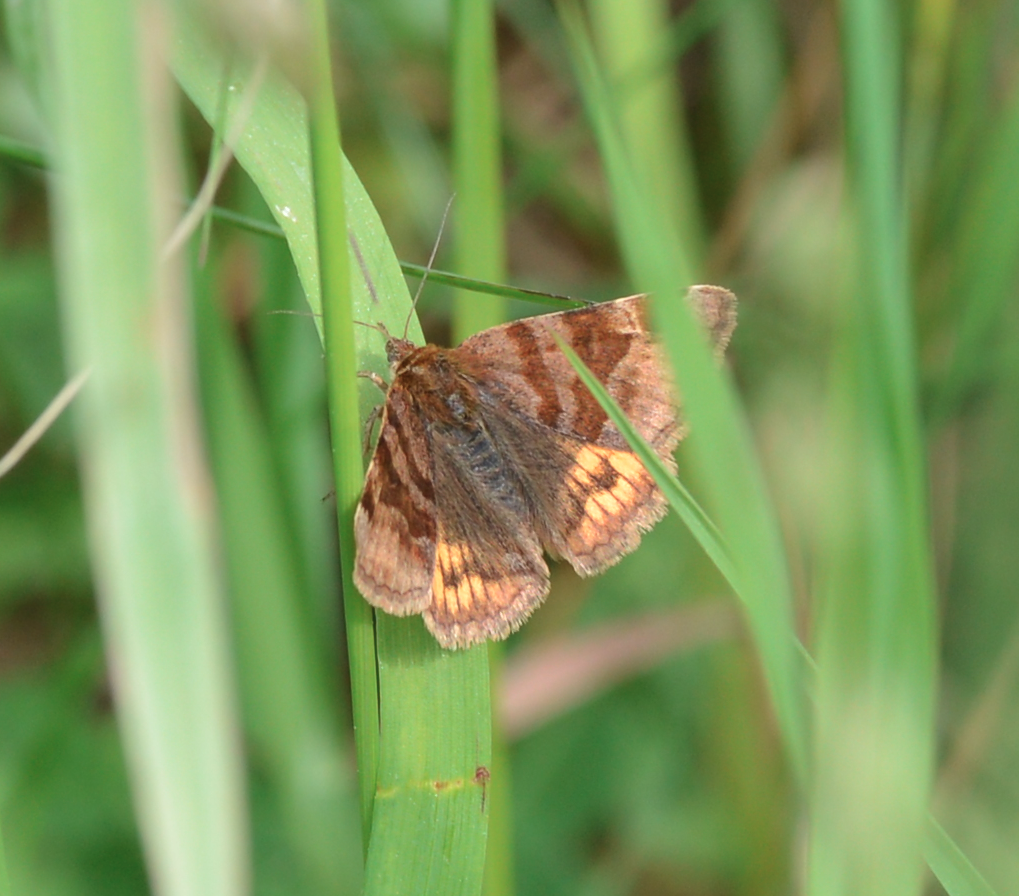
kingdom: Animalia
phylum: Arthropoda
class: Insecta
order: Lepidoptera
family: Erebidae
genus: Euclidia
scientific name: Euclidia glyphica
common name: Burnet companion
